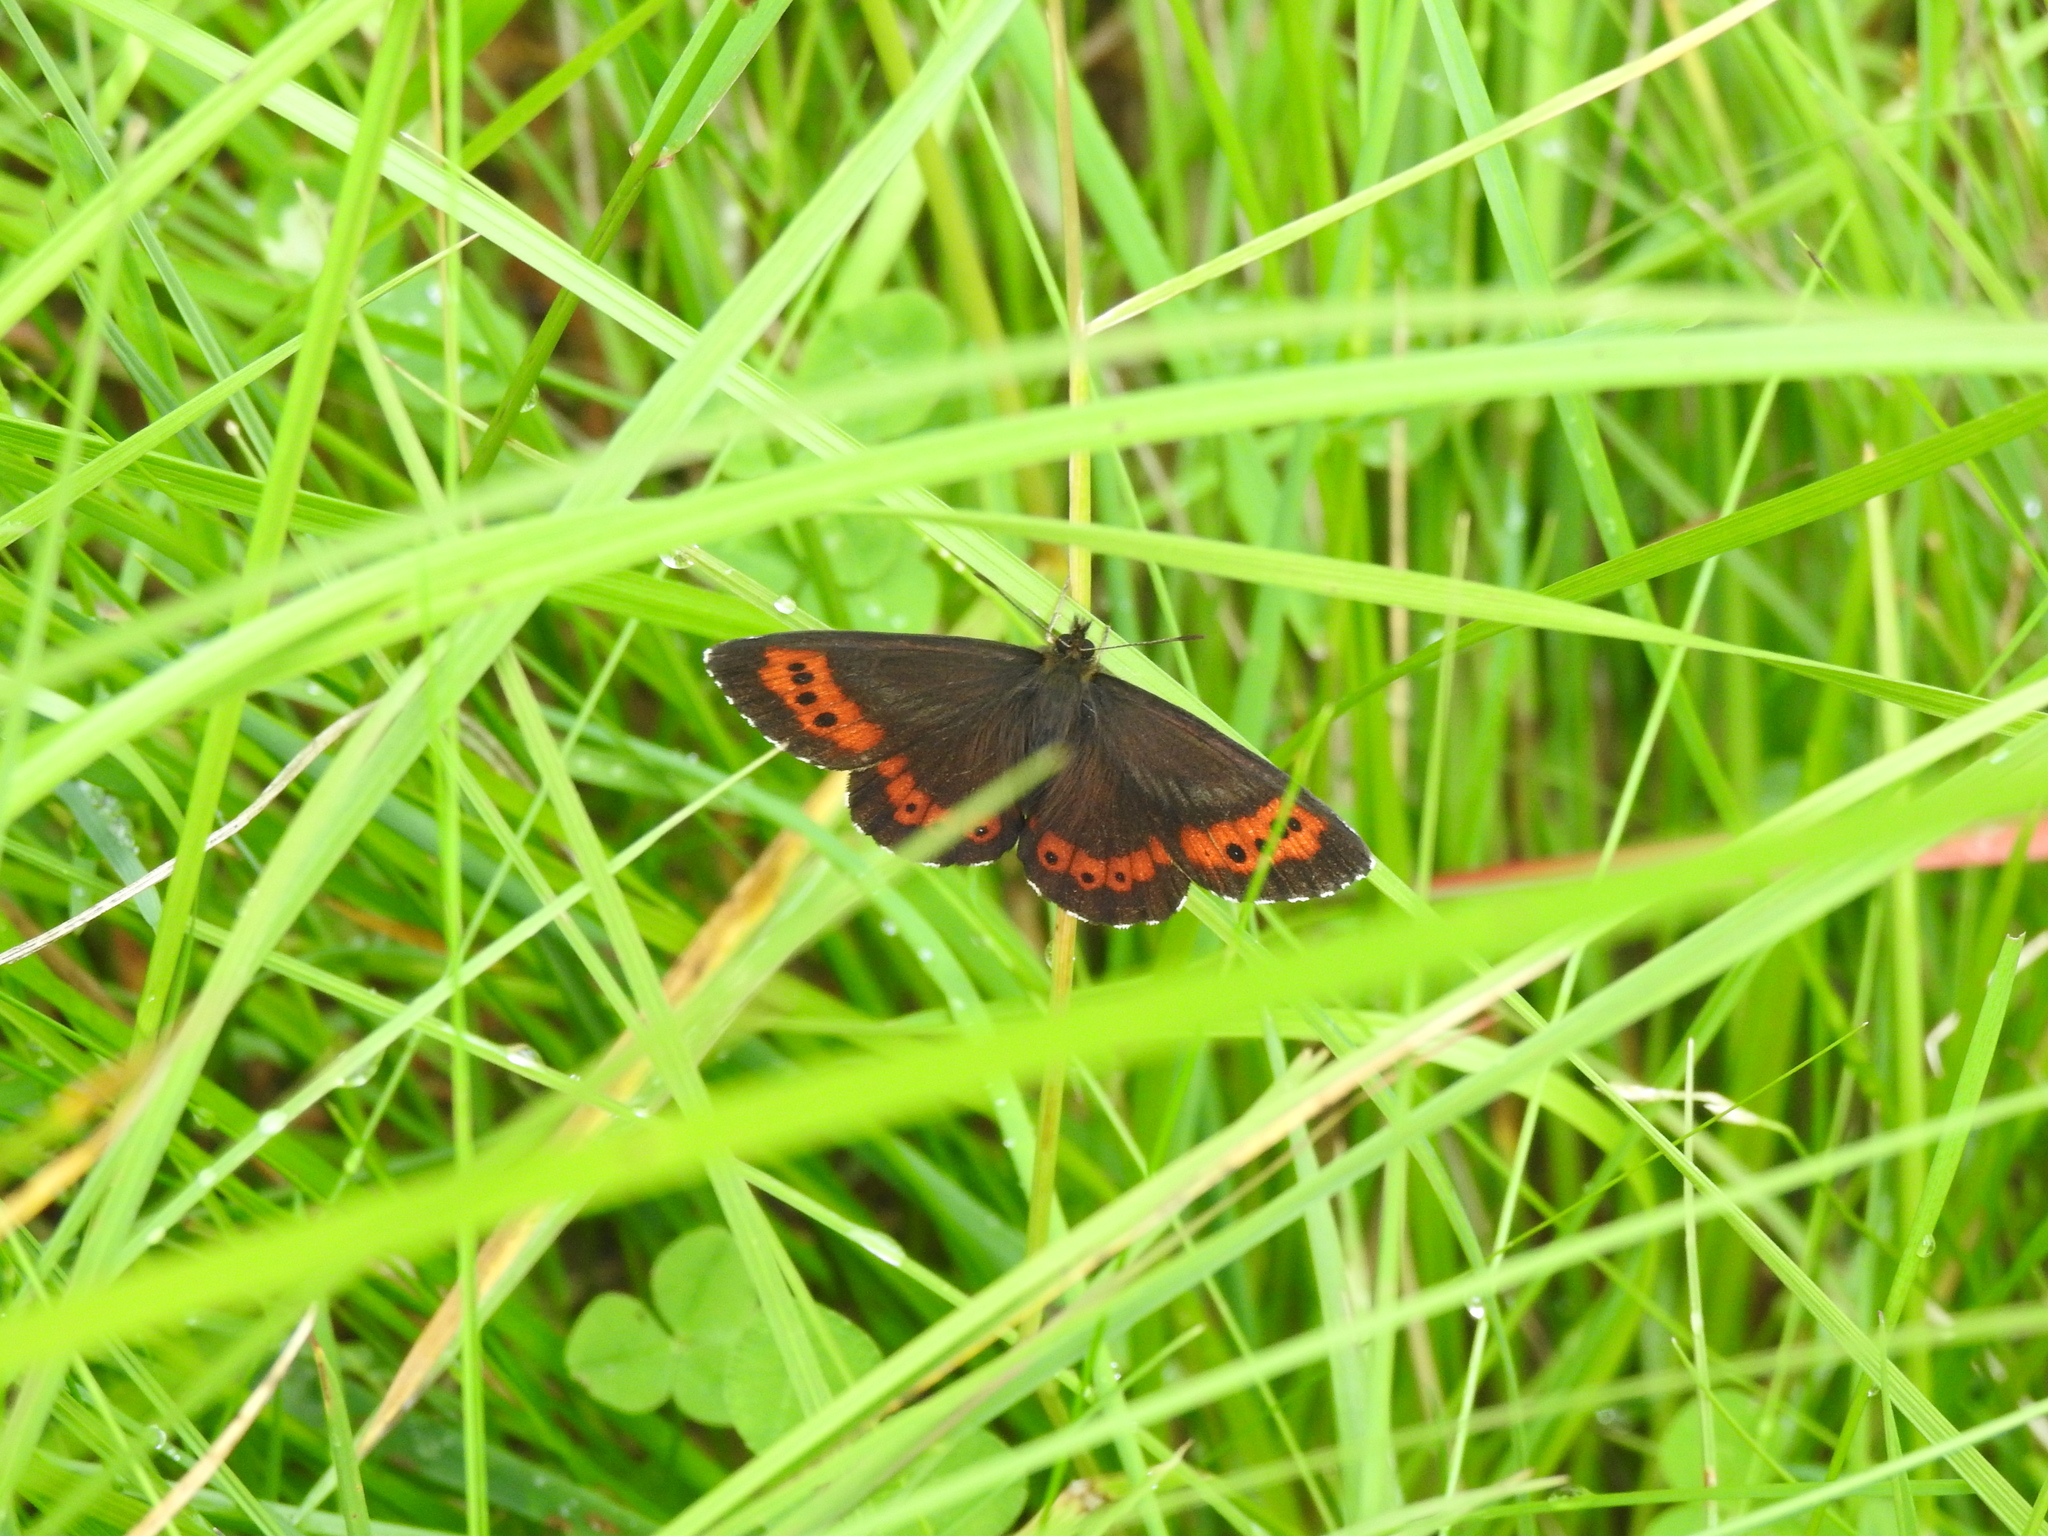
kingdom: Animalia
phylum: Arthropoda
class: Insecta
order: Lepidoptera
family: Nymphalidae
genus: Erebia
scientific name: Erebia ligea
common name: Arran brown
